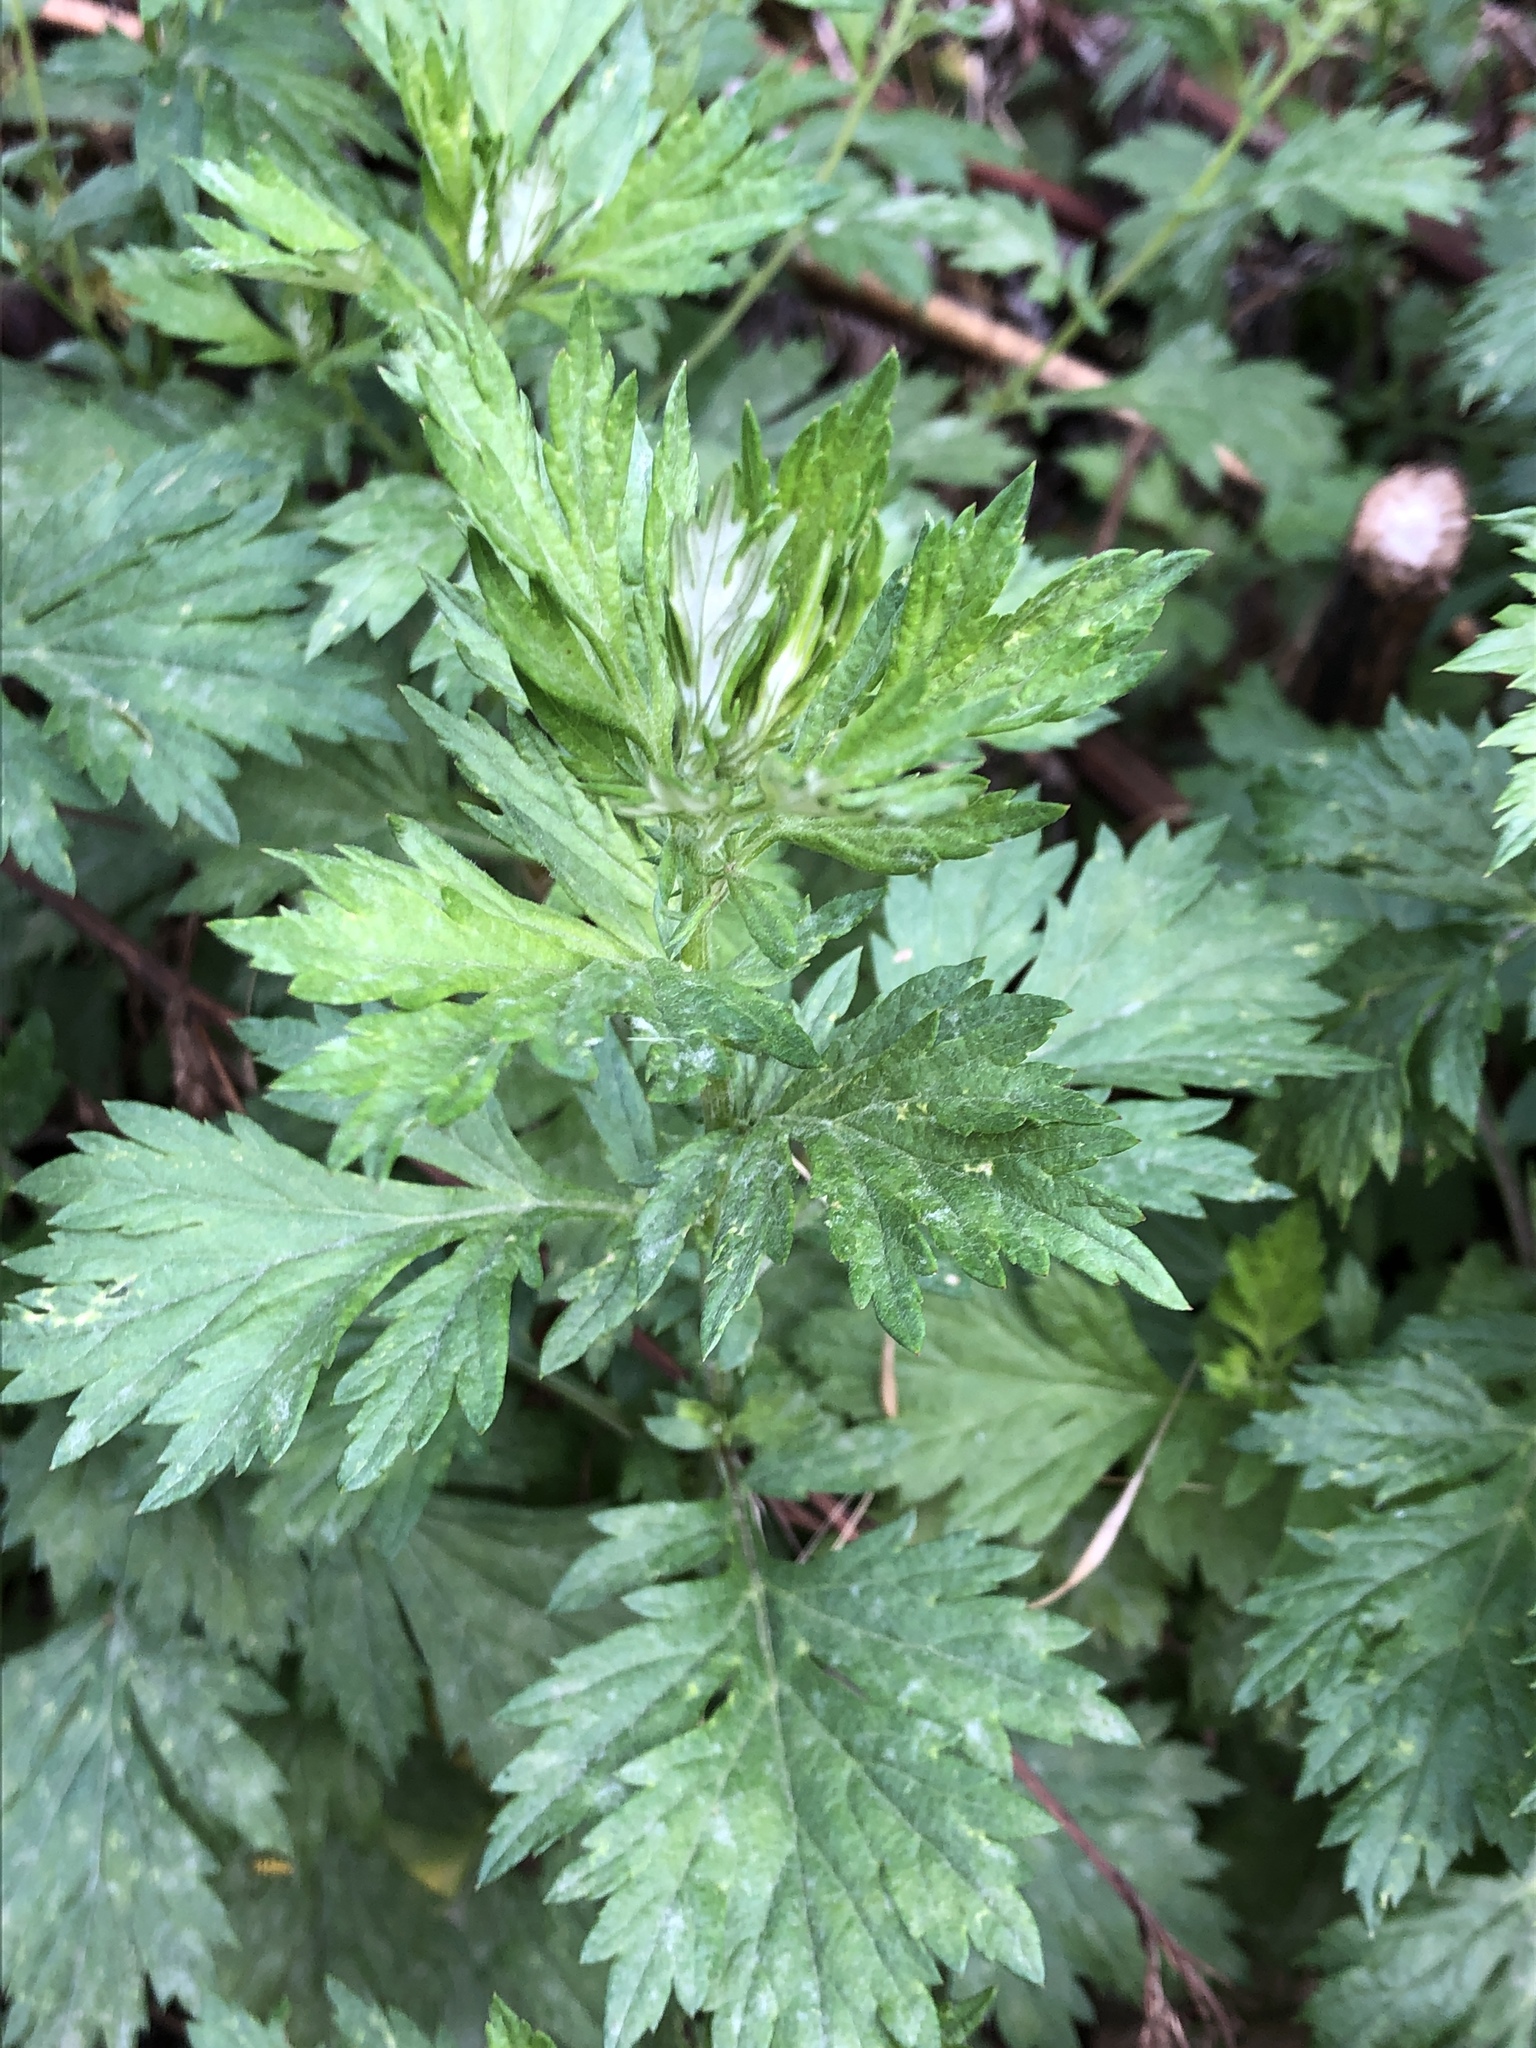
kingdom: Plantae
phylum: Tracheophyta
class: Magnoliopsida
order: Asterales
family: Asteraceae
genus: Artemisia
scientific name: Artemisia vulgaris
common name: Mugwort
